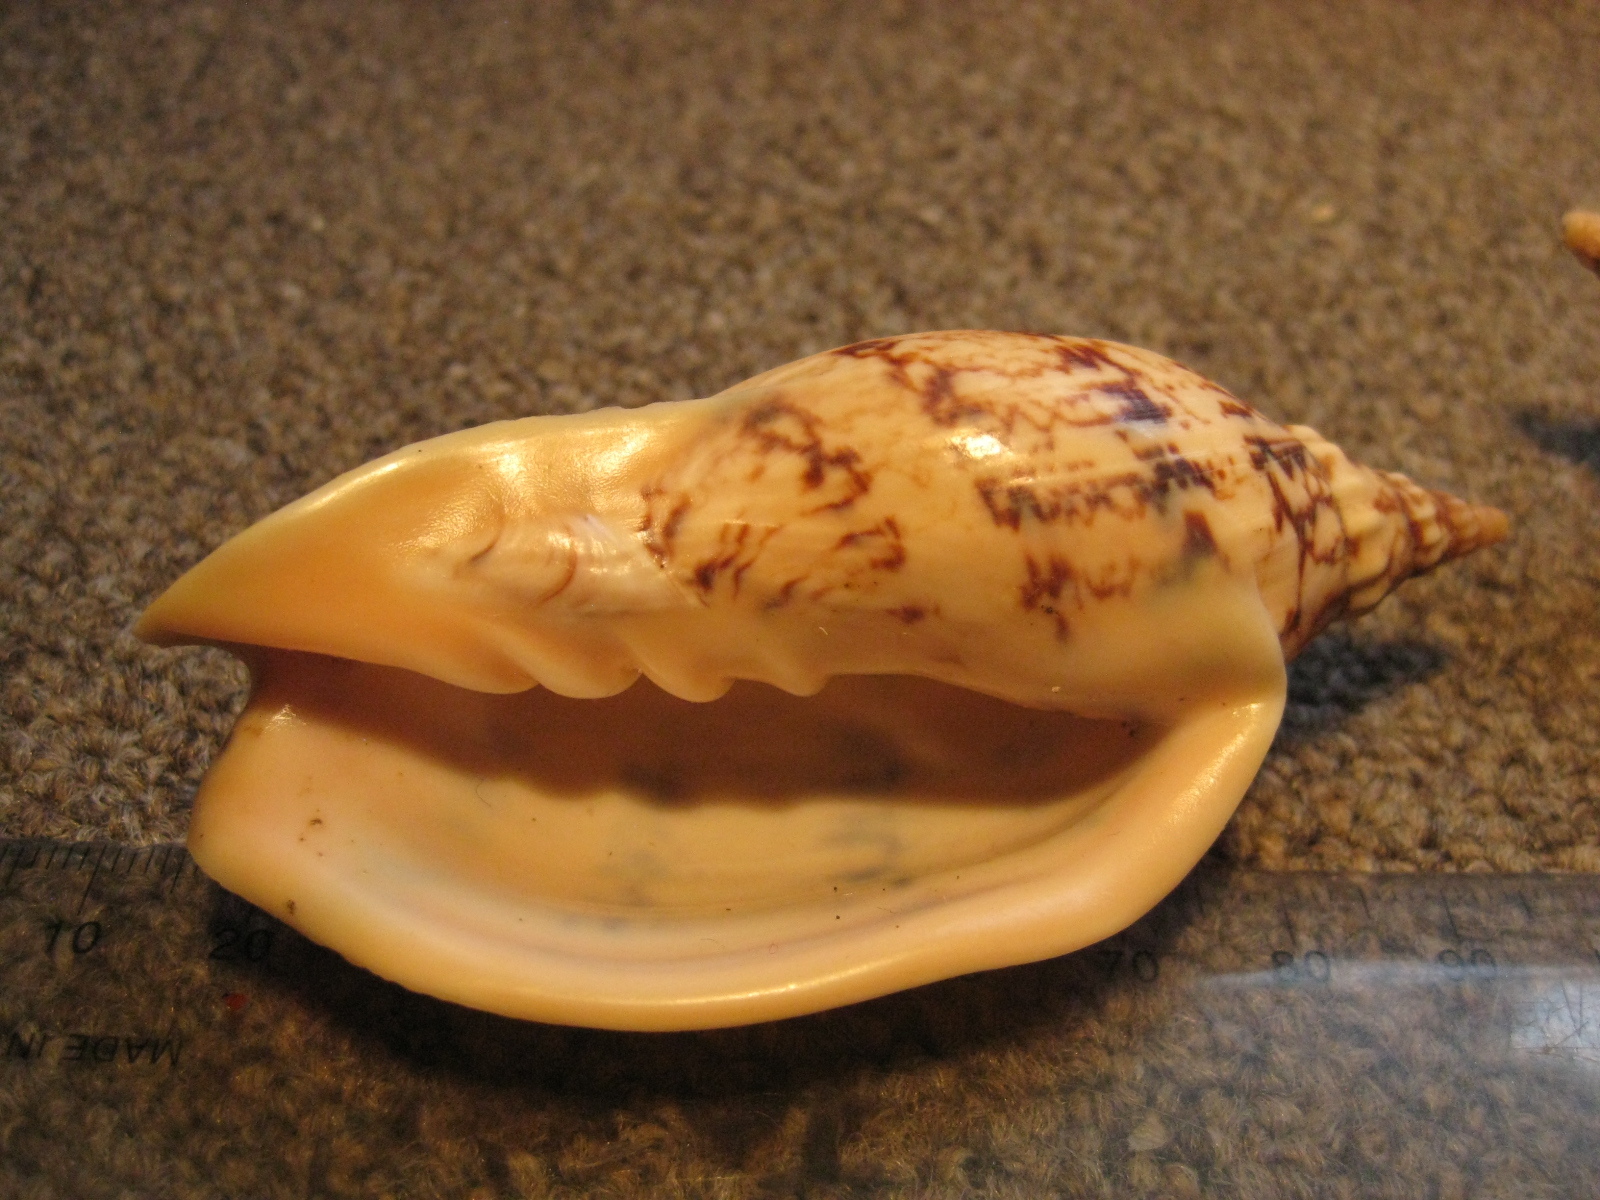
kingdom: Animalia
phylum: Mollusca
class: Gastropoda
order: Neogastropoda
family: Volutidae
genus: Alcithoe
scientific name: Alcithoe arabica
